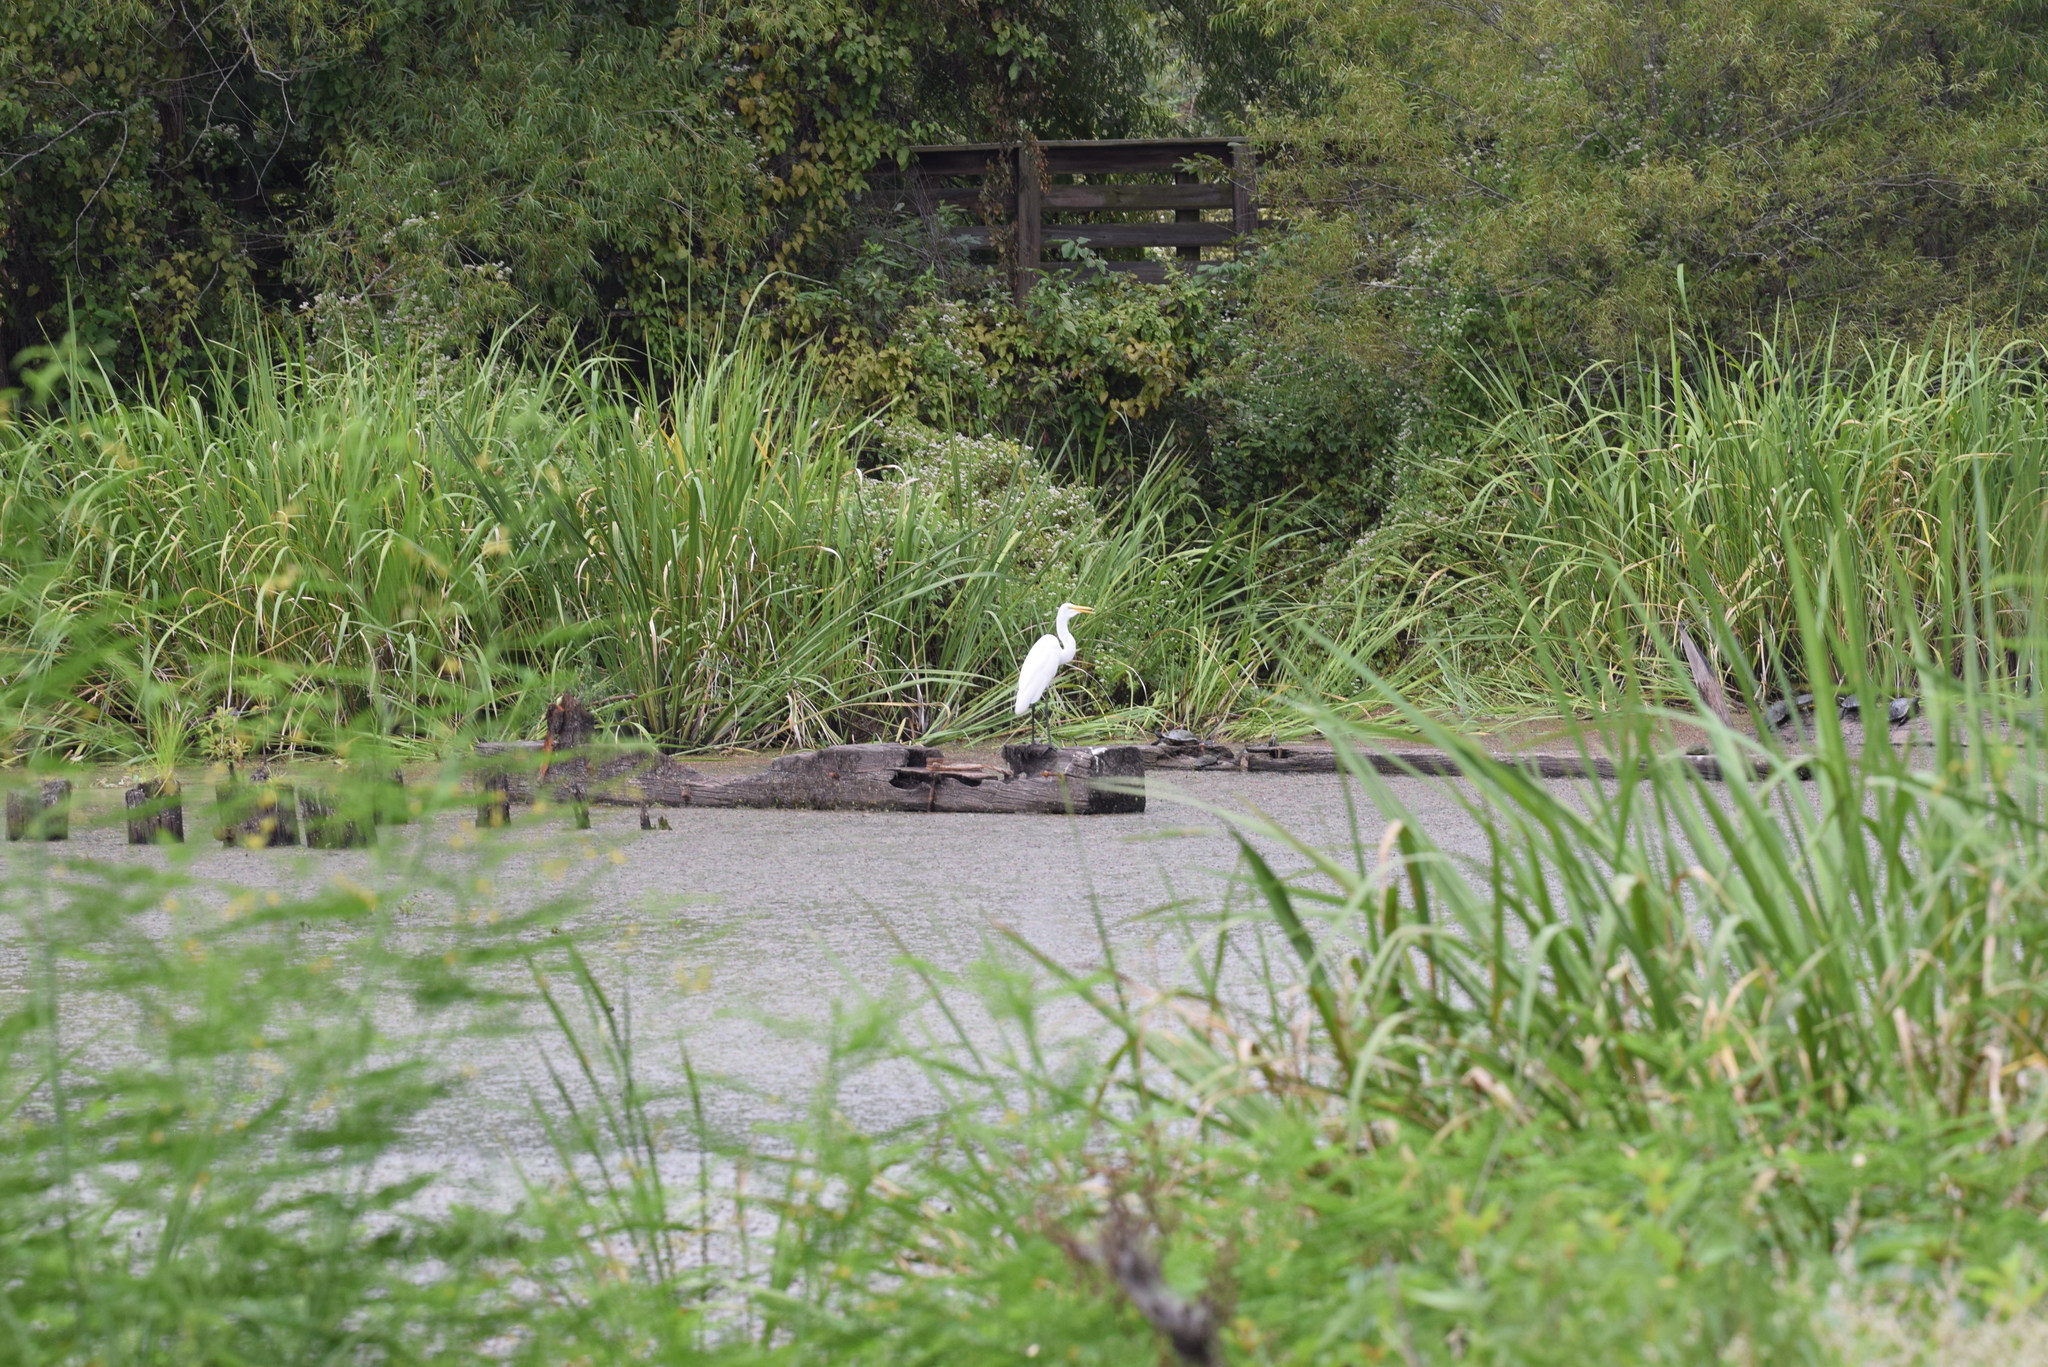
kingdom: Animalia
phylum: Chordata
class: Aves
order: Pelecaniformes
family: Ardeidae
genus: Ardea
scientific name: Ardea alba
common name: Great egret
